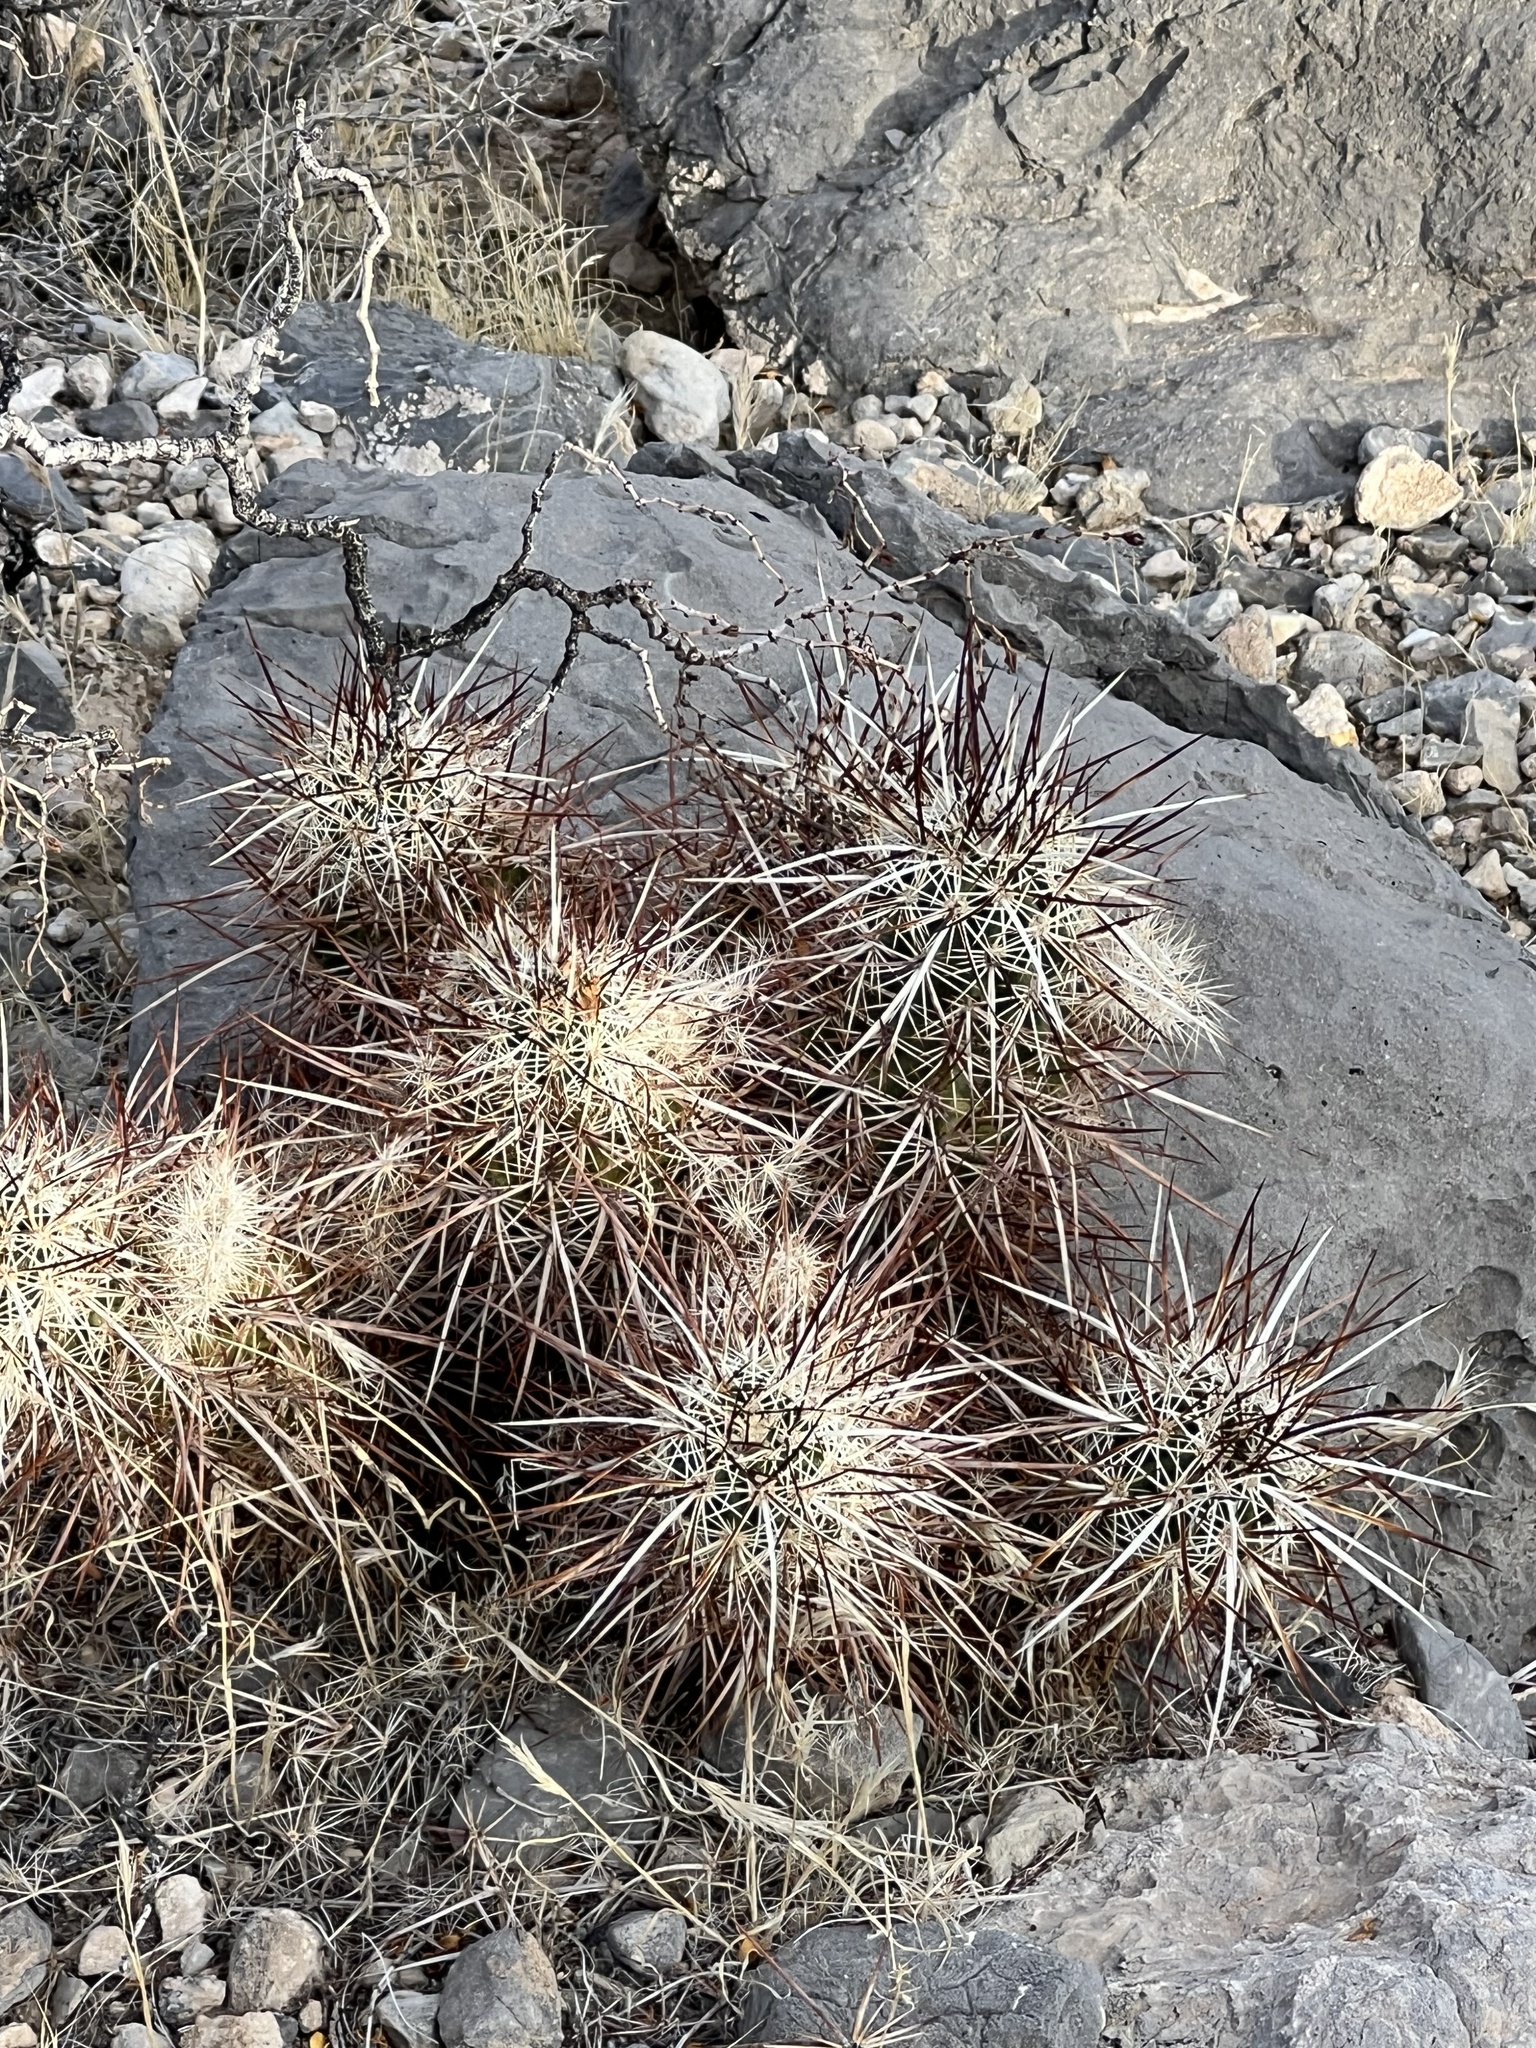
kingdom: Plantae
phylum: Tracheophyta
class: Magnoliopsida
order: Caryophyllales
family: Cactaceae
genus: Echinocereus
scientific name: Echinocereus engelmannii
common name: Engelmann's hedgehog cactus
